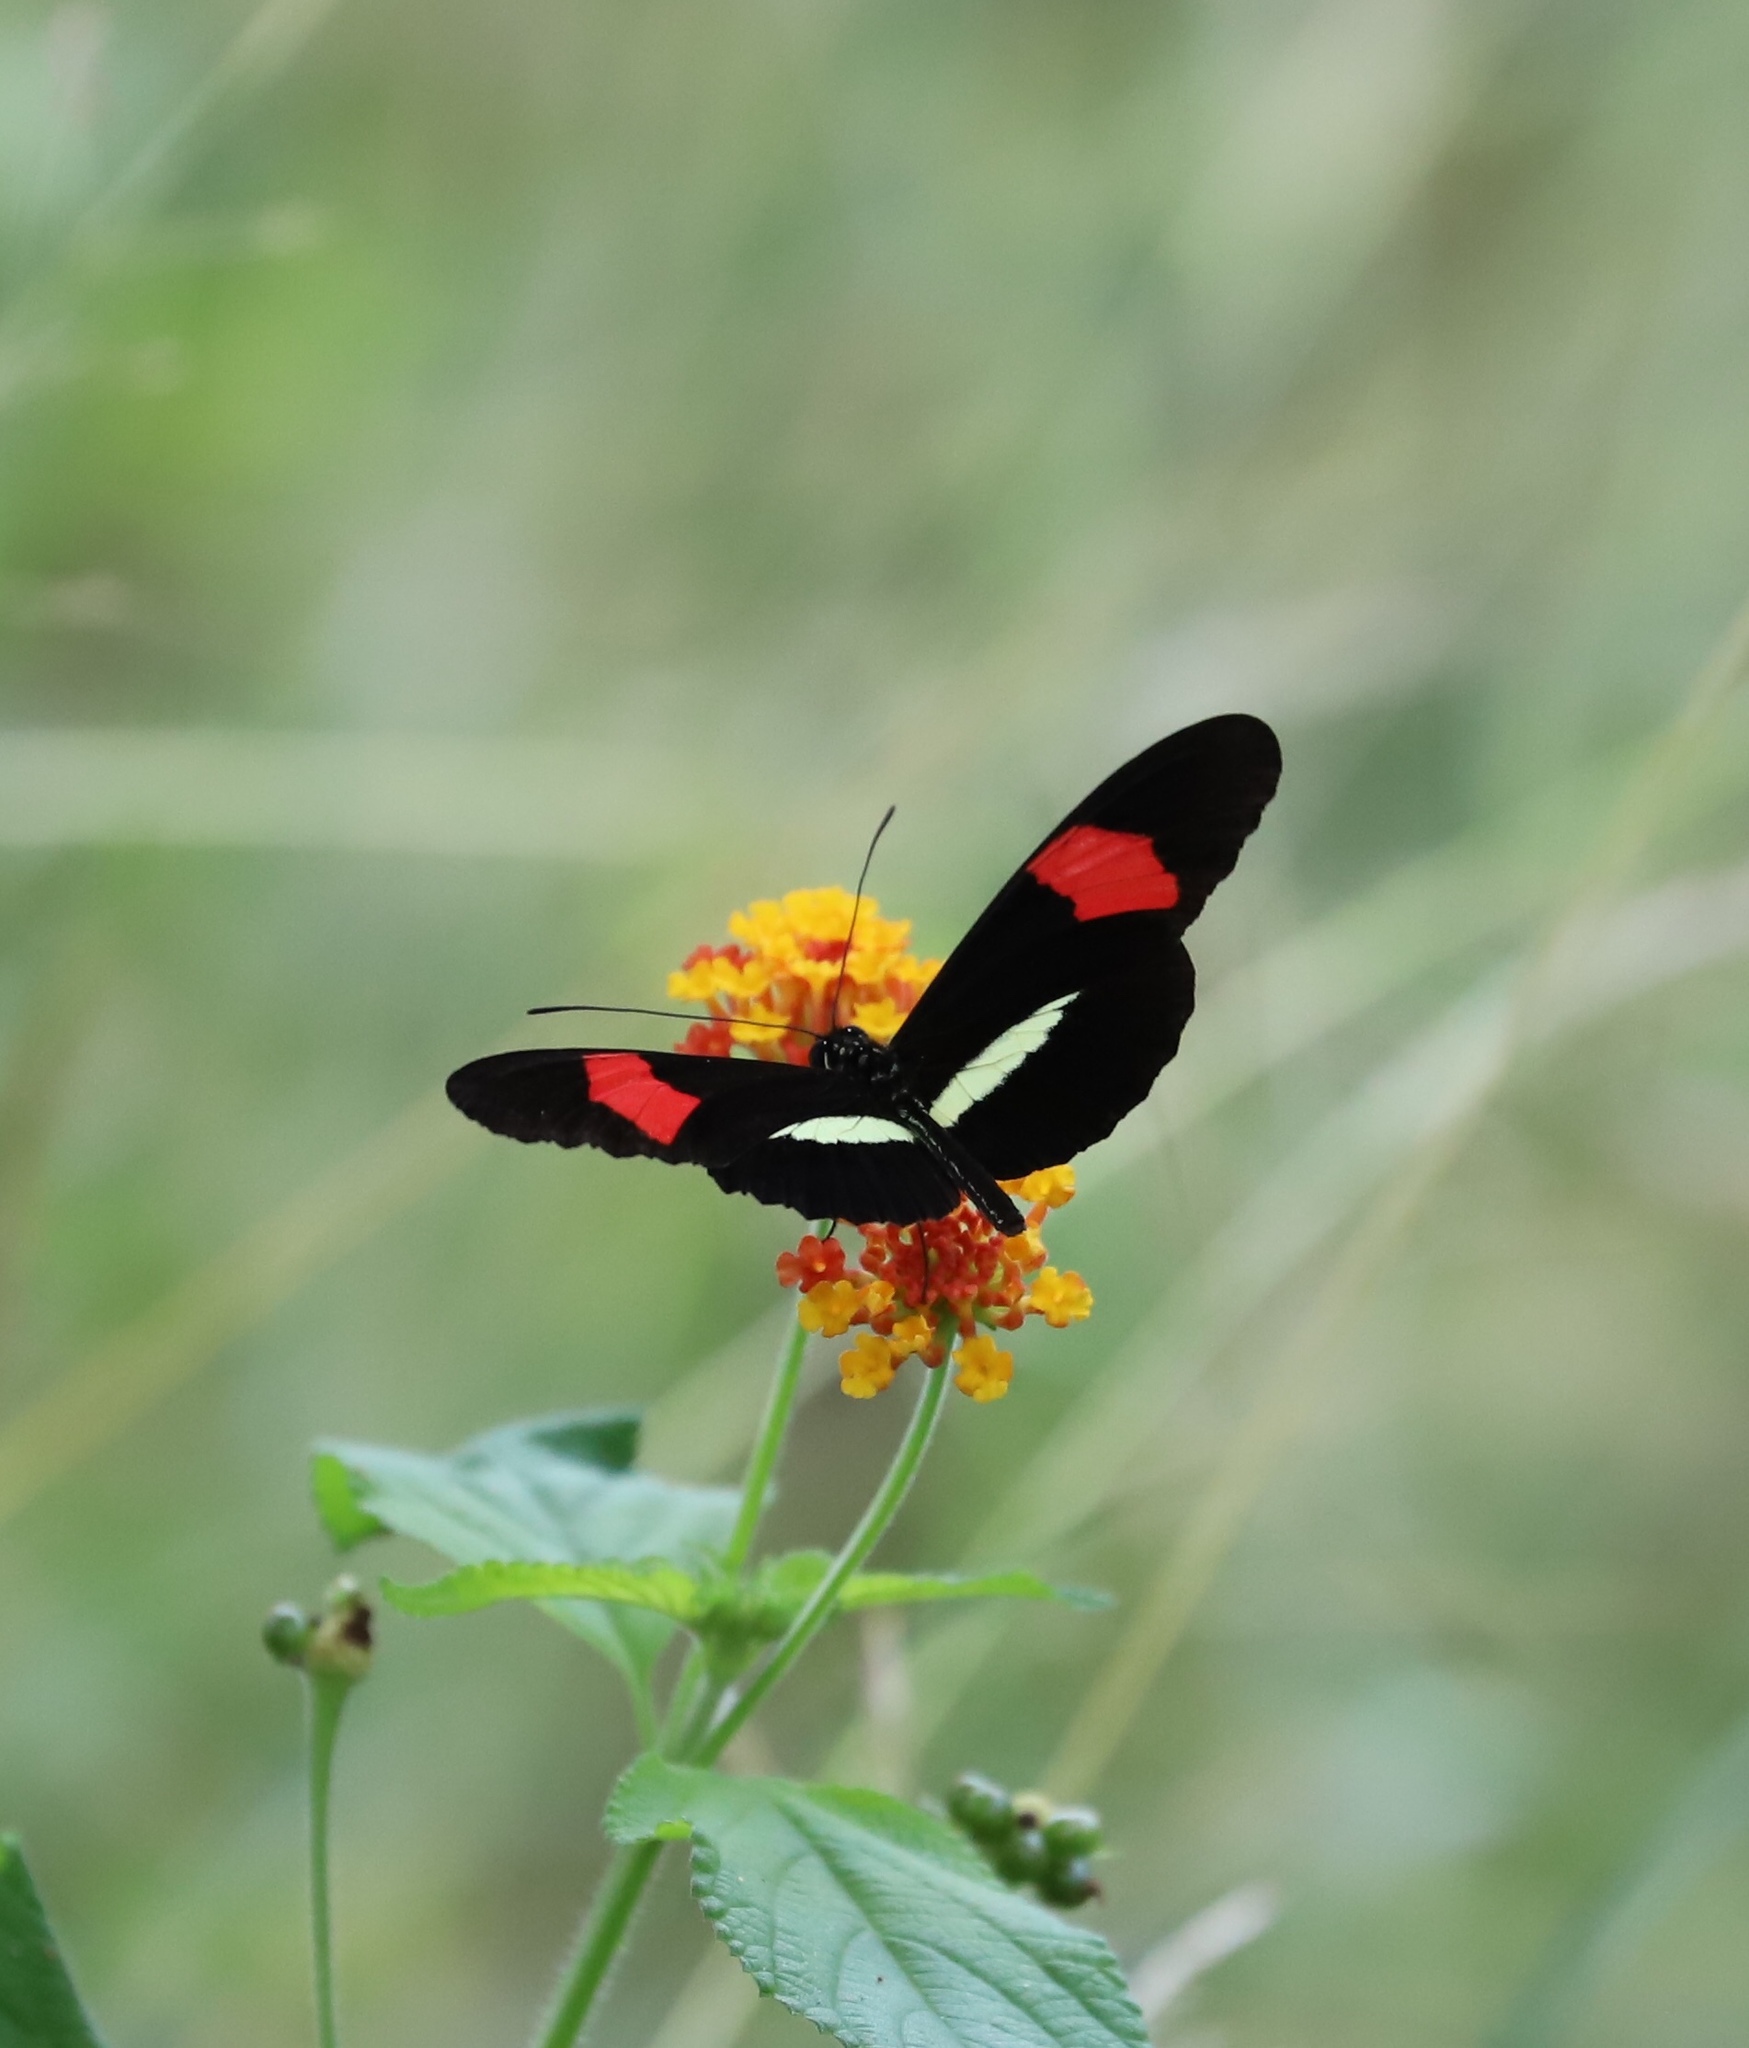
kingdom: Animalia
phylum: Arthropoda
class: Insecta
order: Lepidoptera
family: Nymphalidae
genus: Tirumala
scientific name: Tirumala petiverana
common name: Blue monarch
